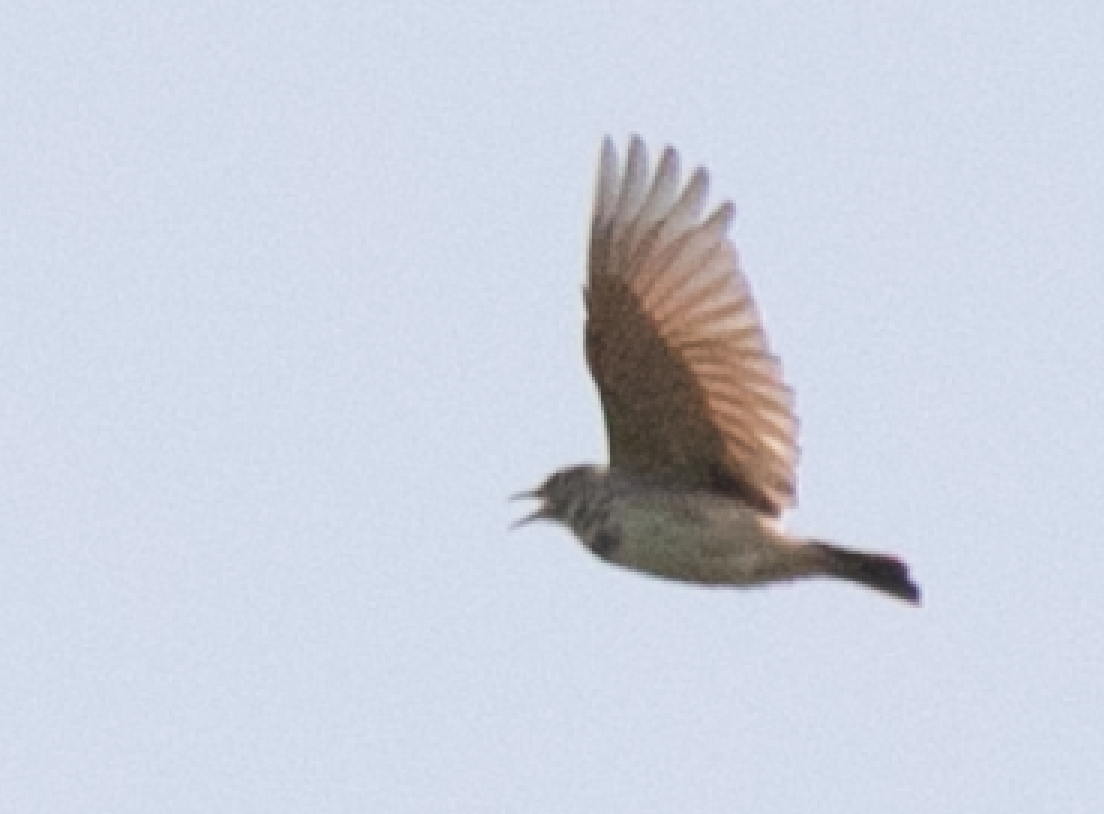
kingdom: Animalia
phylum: Chordata
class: Aves
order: Passeriformes
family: Alaudidae
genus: Galerida
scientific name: Galerida cristata
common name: Crested lark
